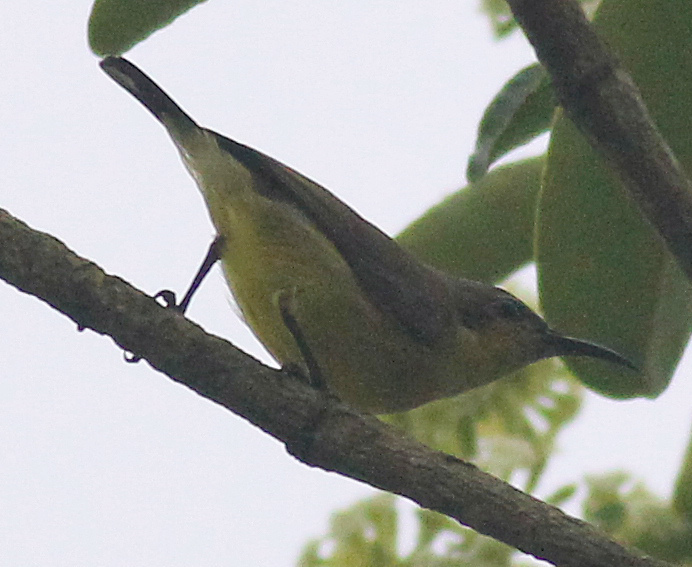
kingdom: Animalia
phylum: Chordata
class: Aves
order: Passeriformes
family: Nectariniidae
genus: Cinnyris
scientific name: Cinnyris
